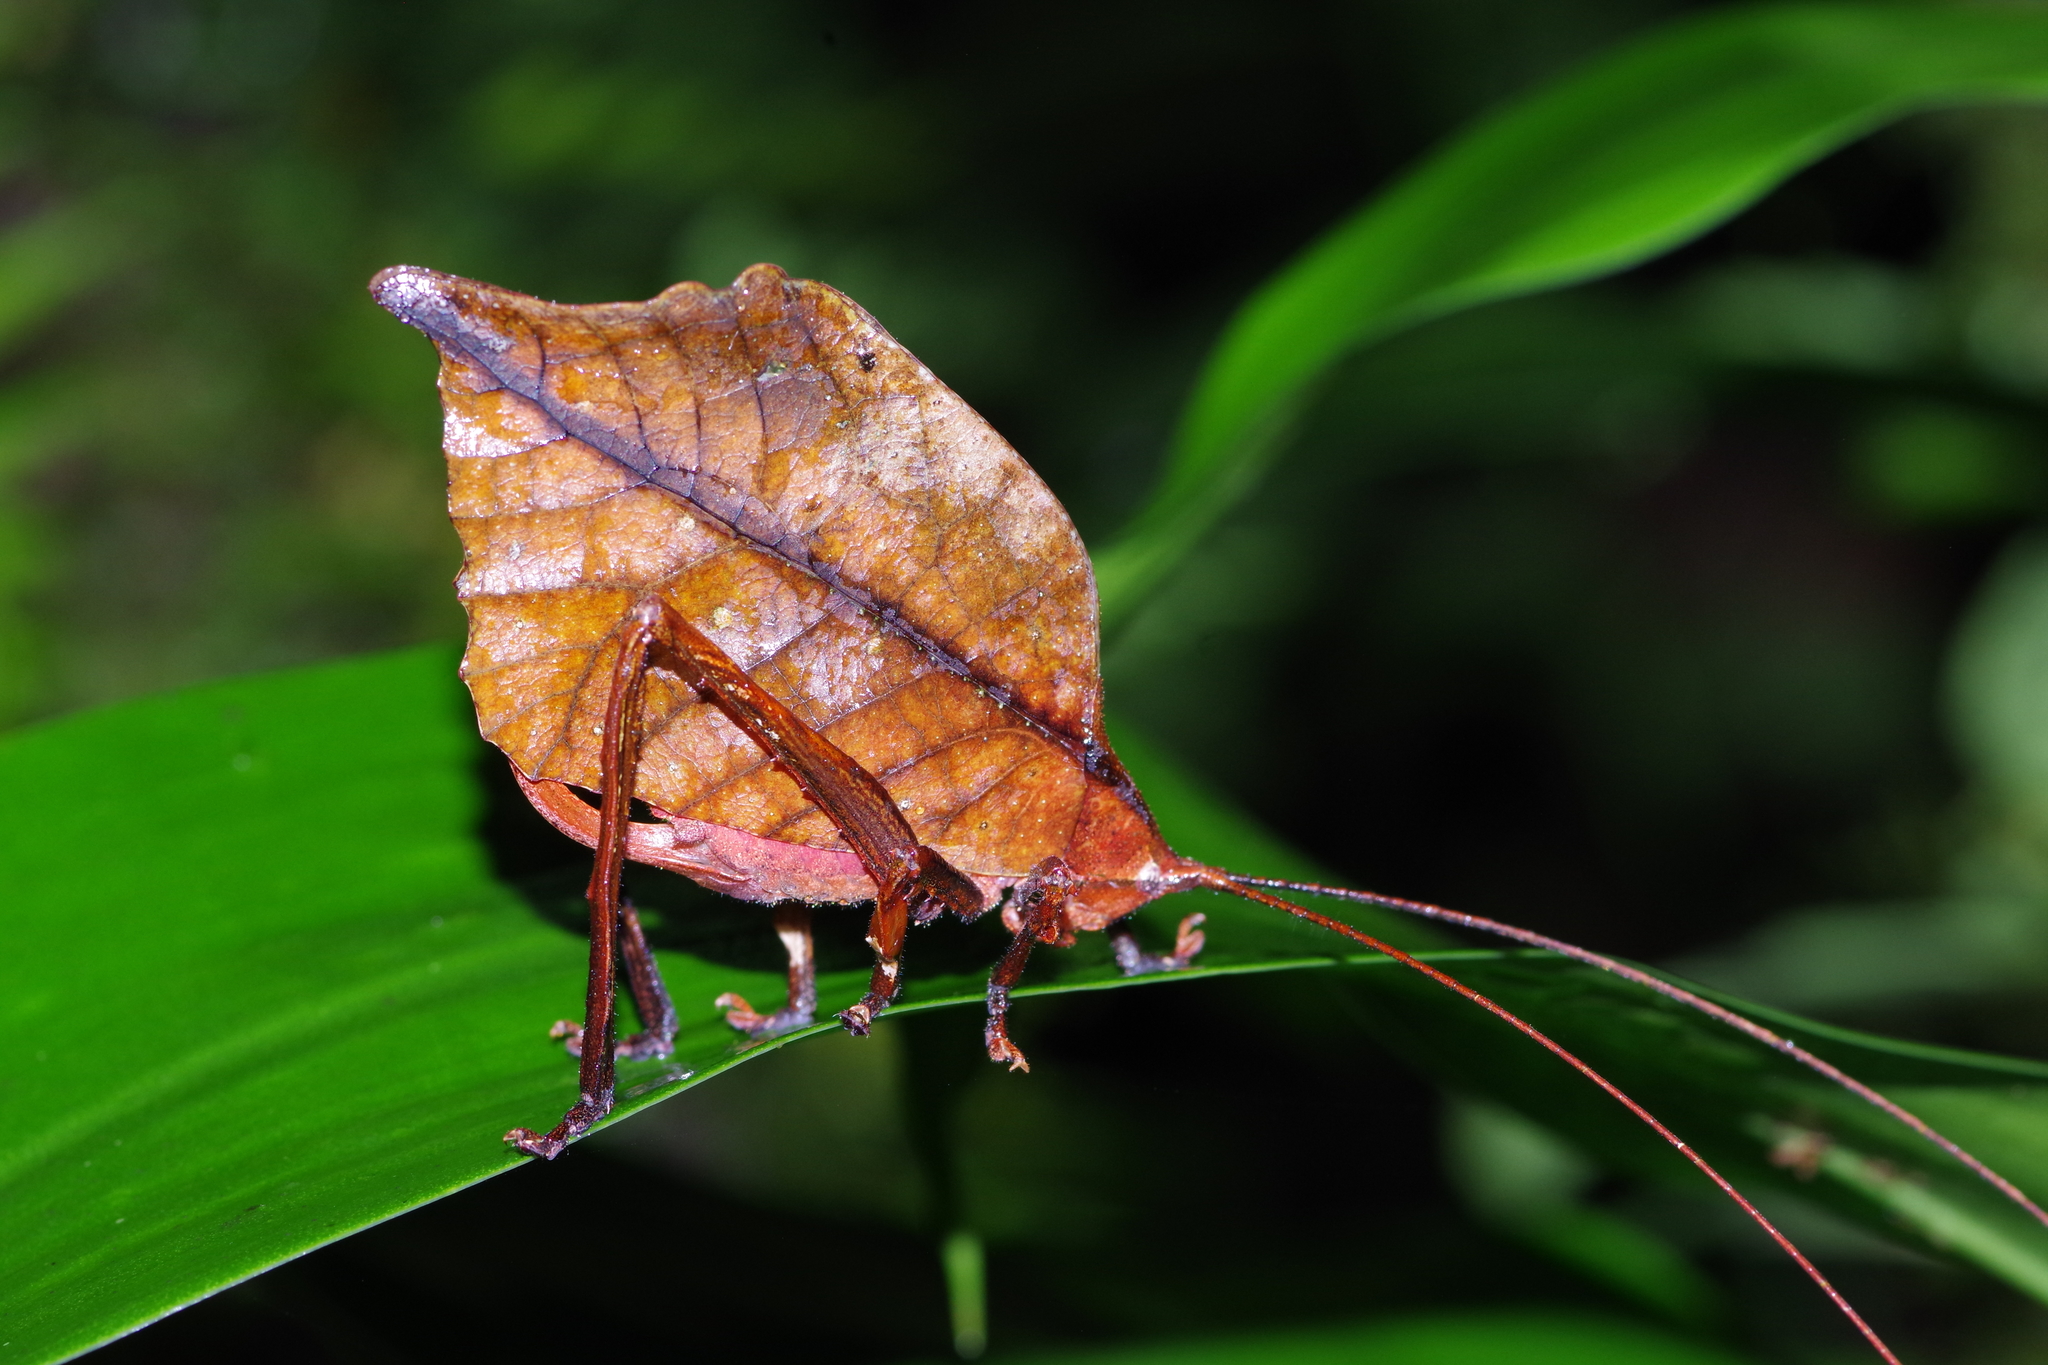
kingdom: Animalia
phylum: Arthropoda
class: Insecta
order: Orthoptera
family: Tettigoniidae
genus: Mimetica
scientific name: Mimetica incisa
